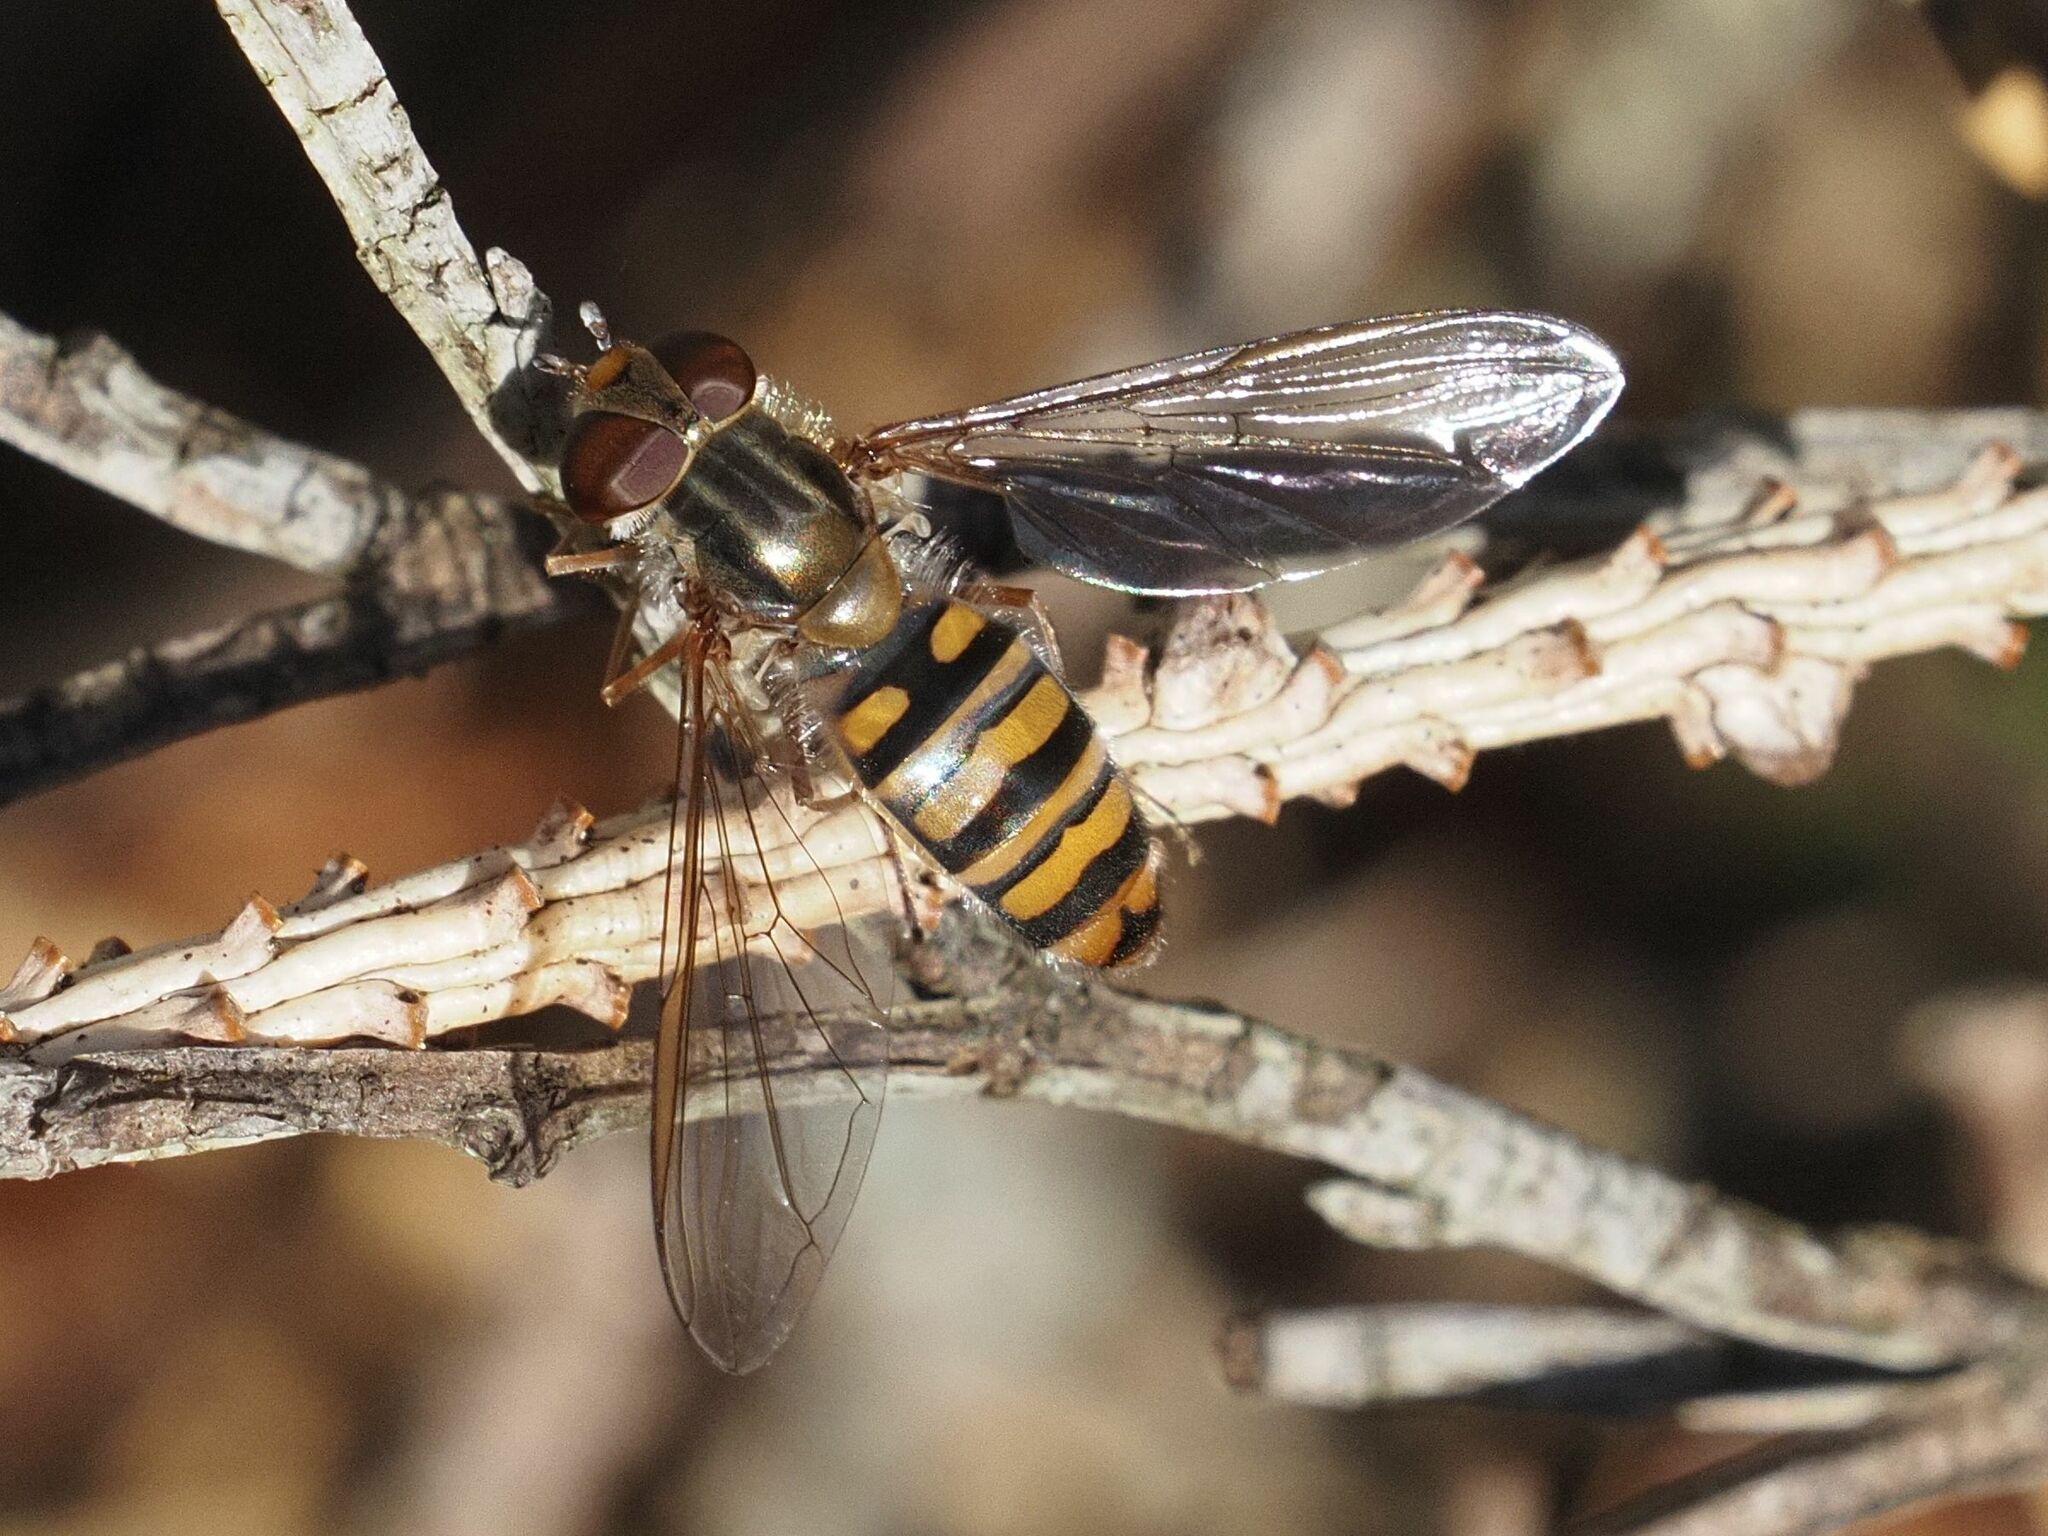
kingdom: Animalia
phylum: Arthropoda
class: Insecta
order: Diptera
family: Syrphidae
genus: Episyrphus
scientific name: Episyrphus balteatus
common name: Marmalade hoverfly
